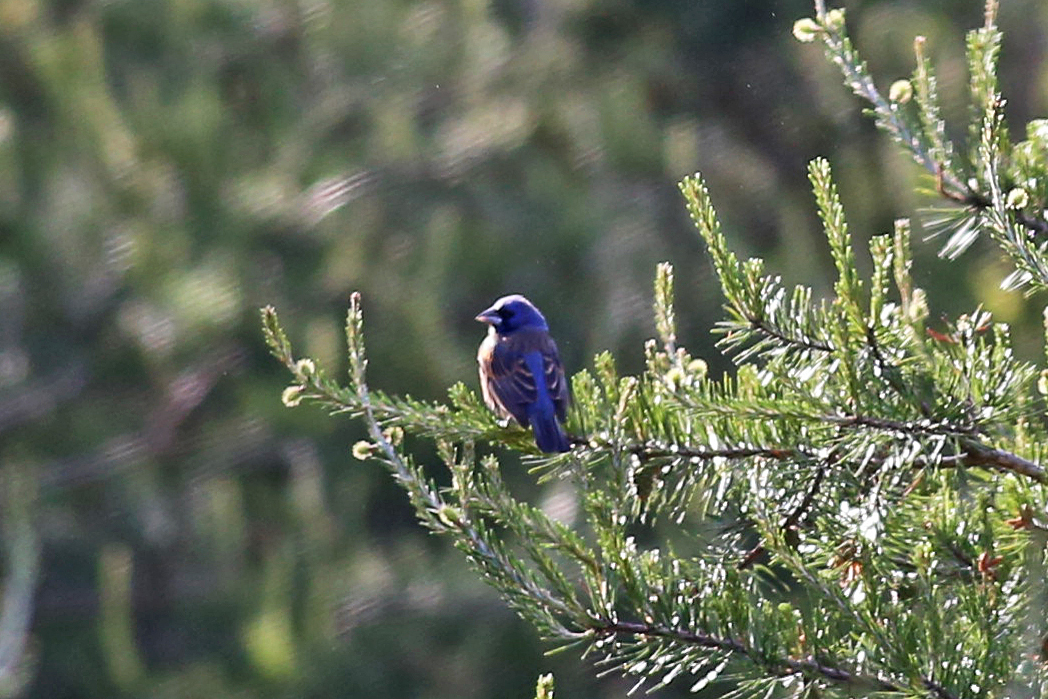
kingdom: Animalia
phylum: Chordata
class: Aves
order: Passeriformes
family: Cardinalidae
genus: Passerina
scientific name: Passerina caerulea
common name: Blue grosbeak
